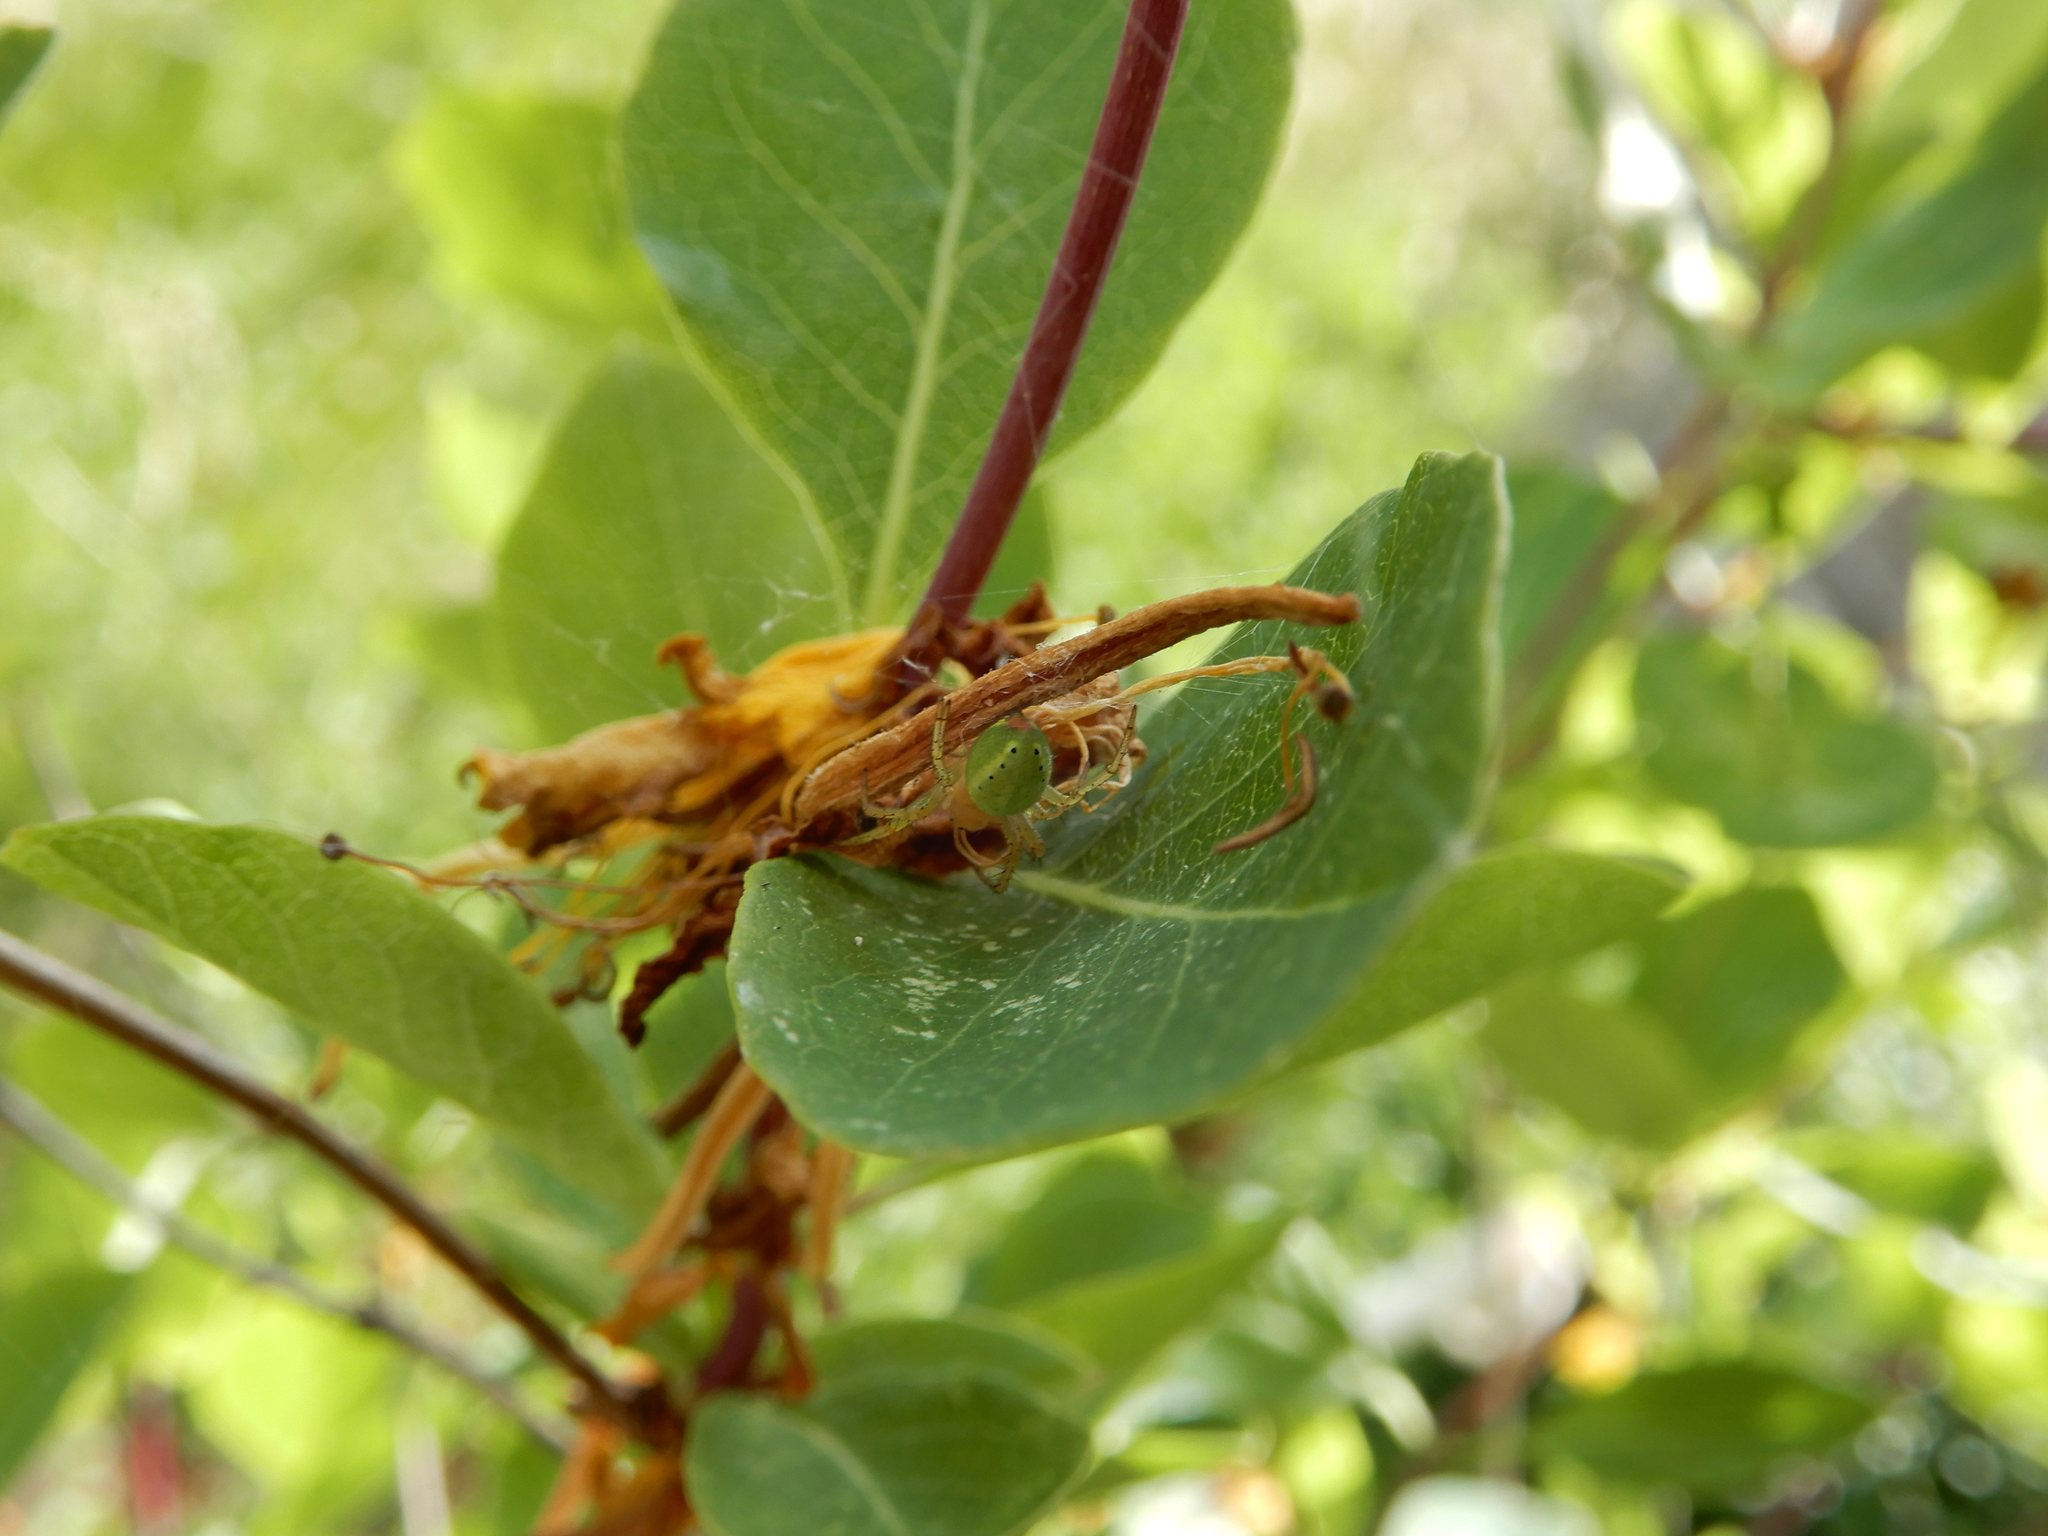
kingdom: Animalia
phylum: Arthropoda
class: Arachnida
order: Araneae
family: Araneidae
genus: Araniella
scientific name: Araniella
